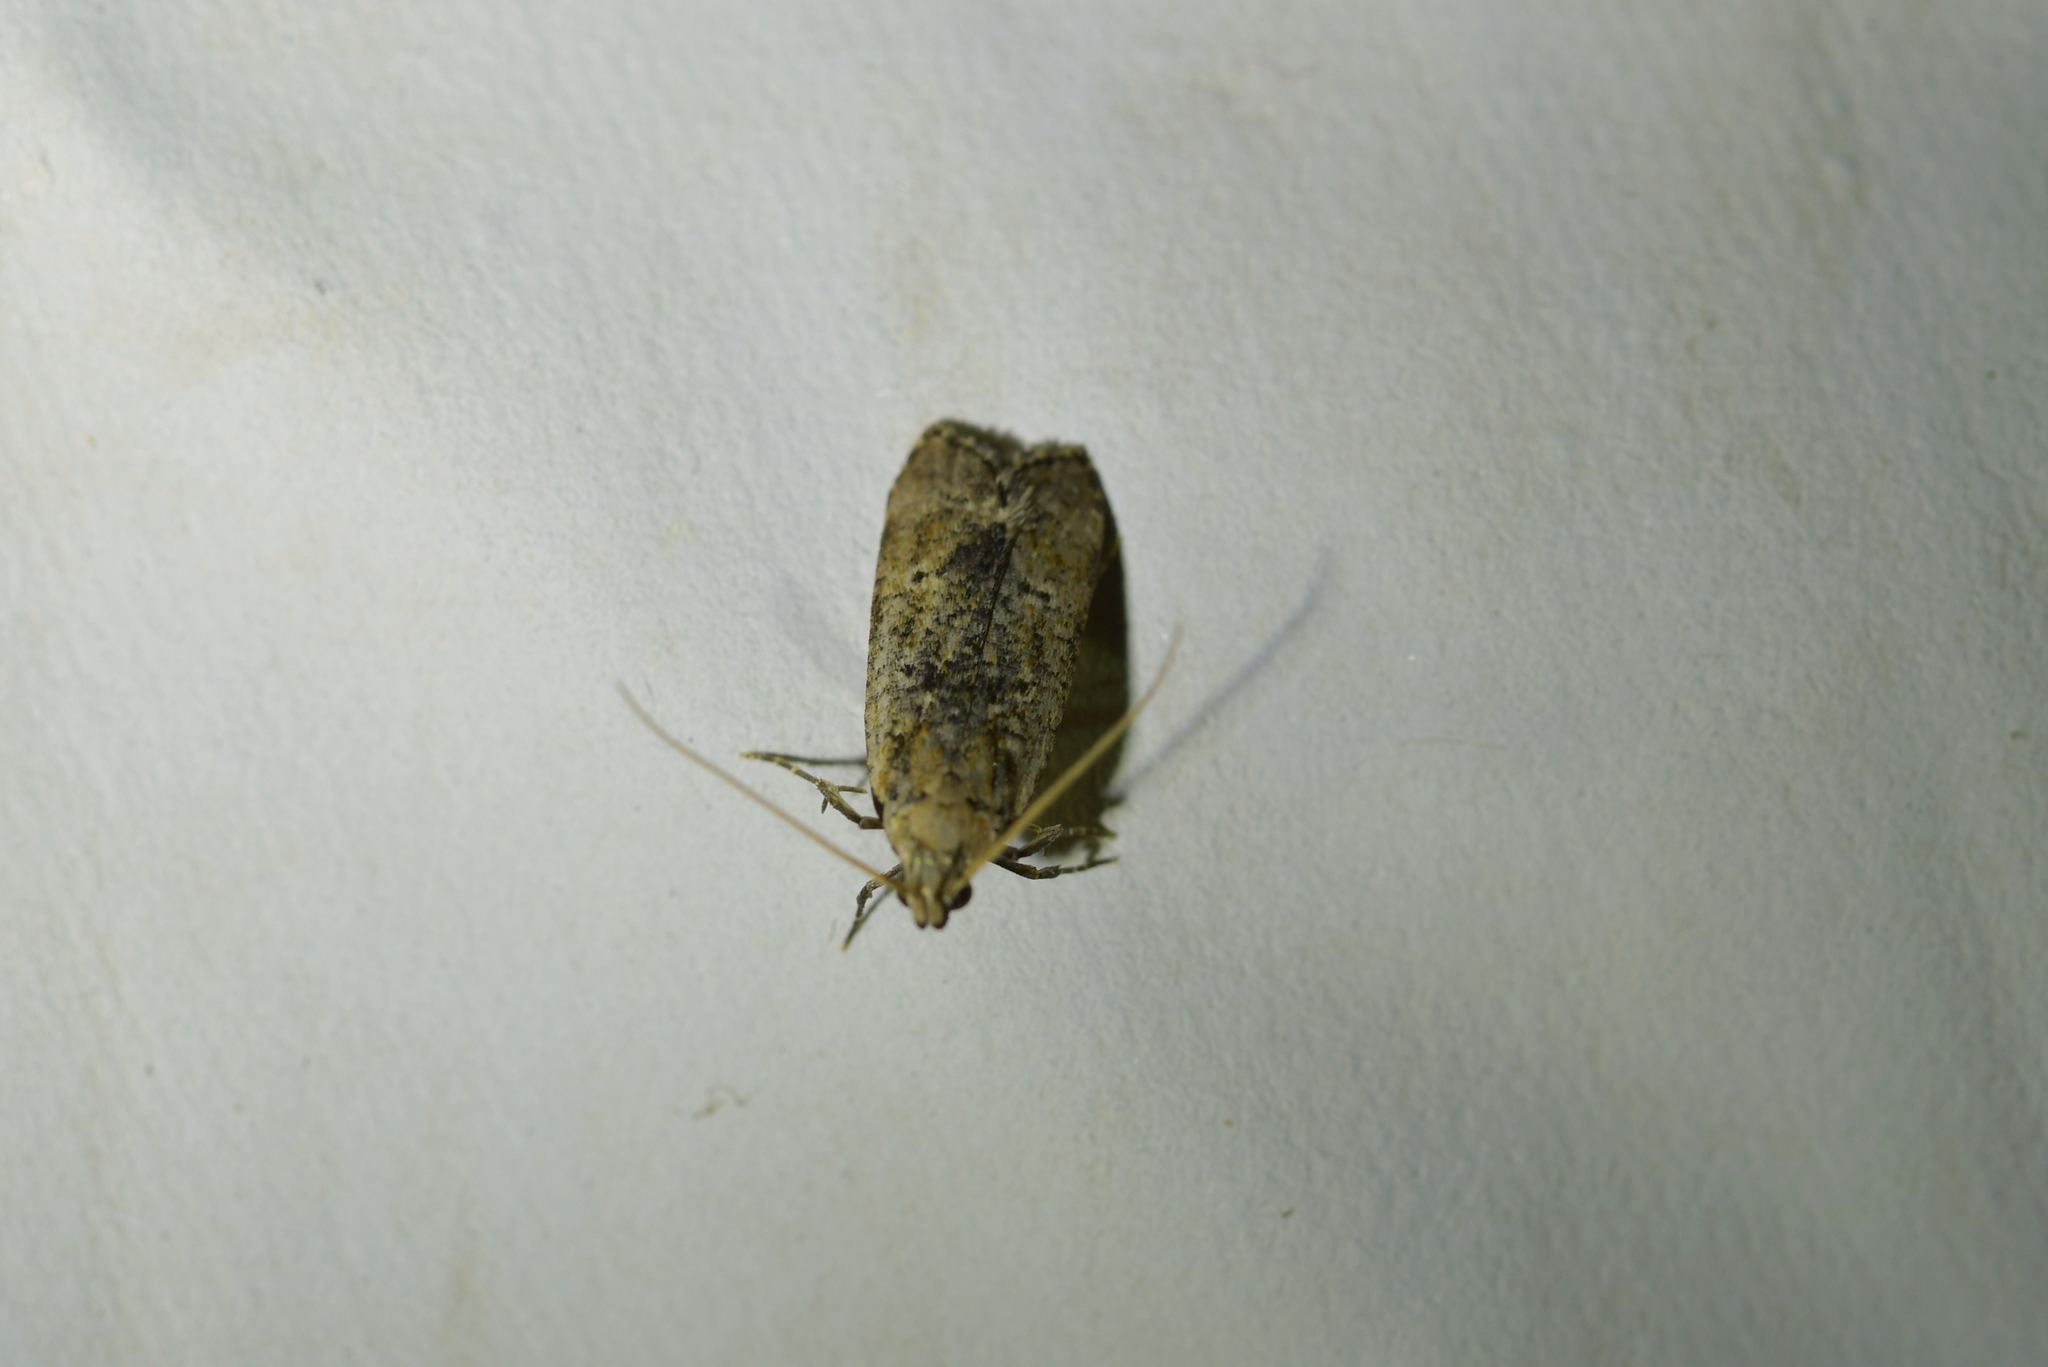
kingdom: Animalia
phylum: Arthropoda
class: Insecta
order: Lepidoptera
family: Gelechiidae
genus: Anisoplaca
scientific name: Anisoplaca achyrota
